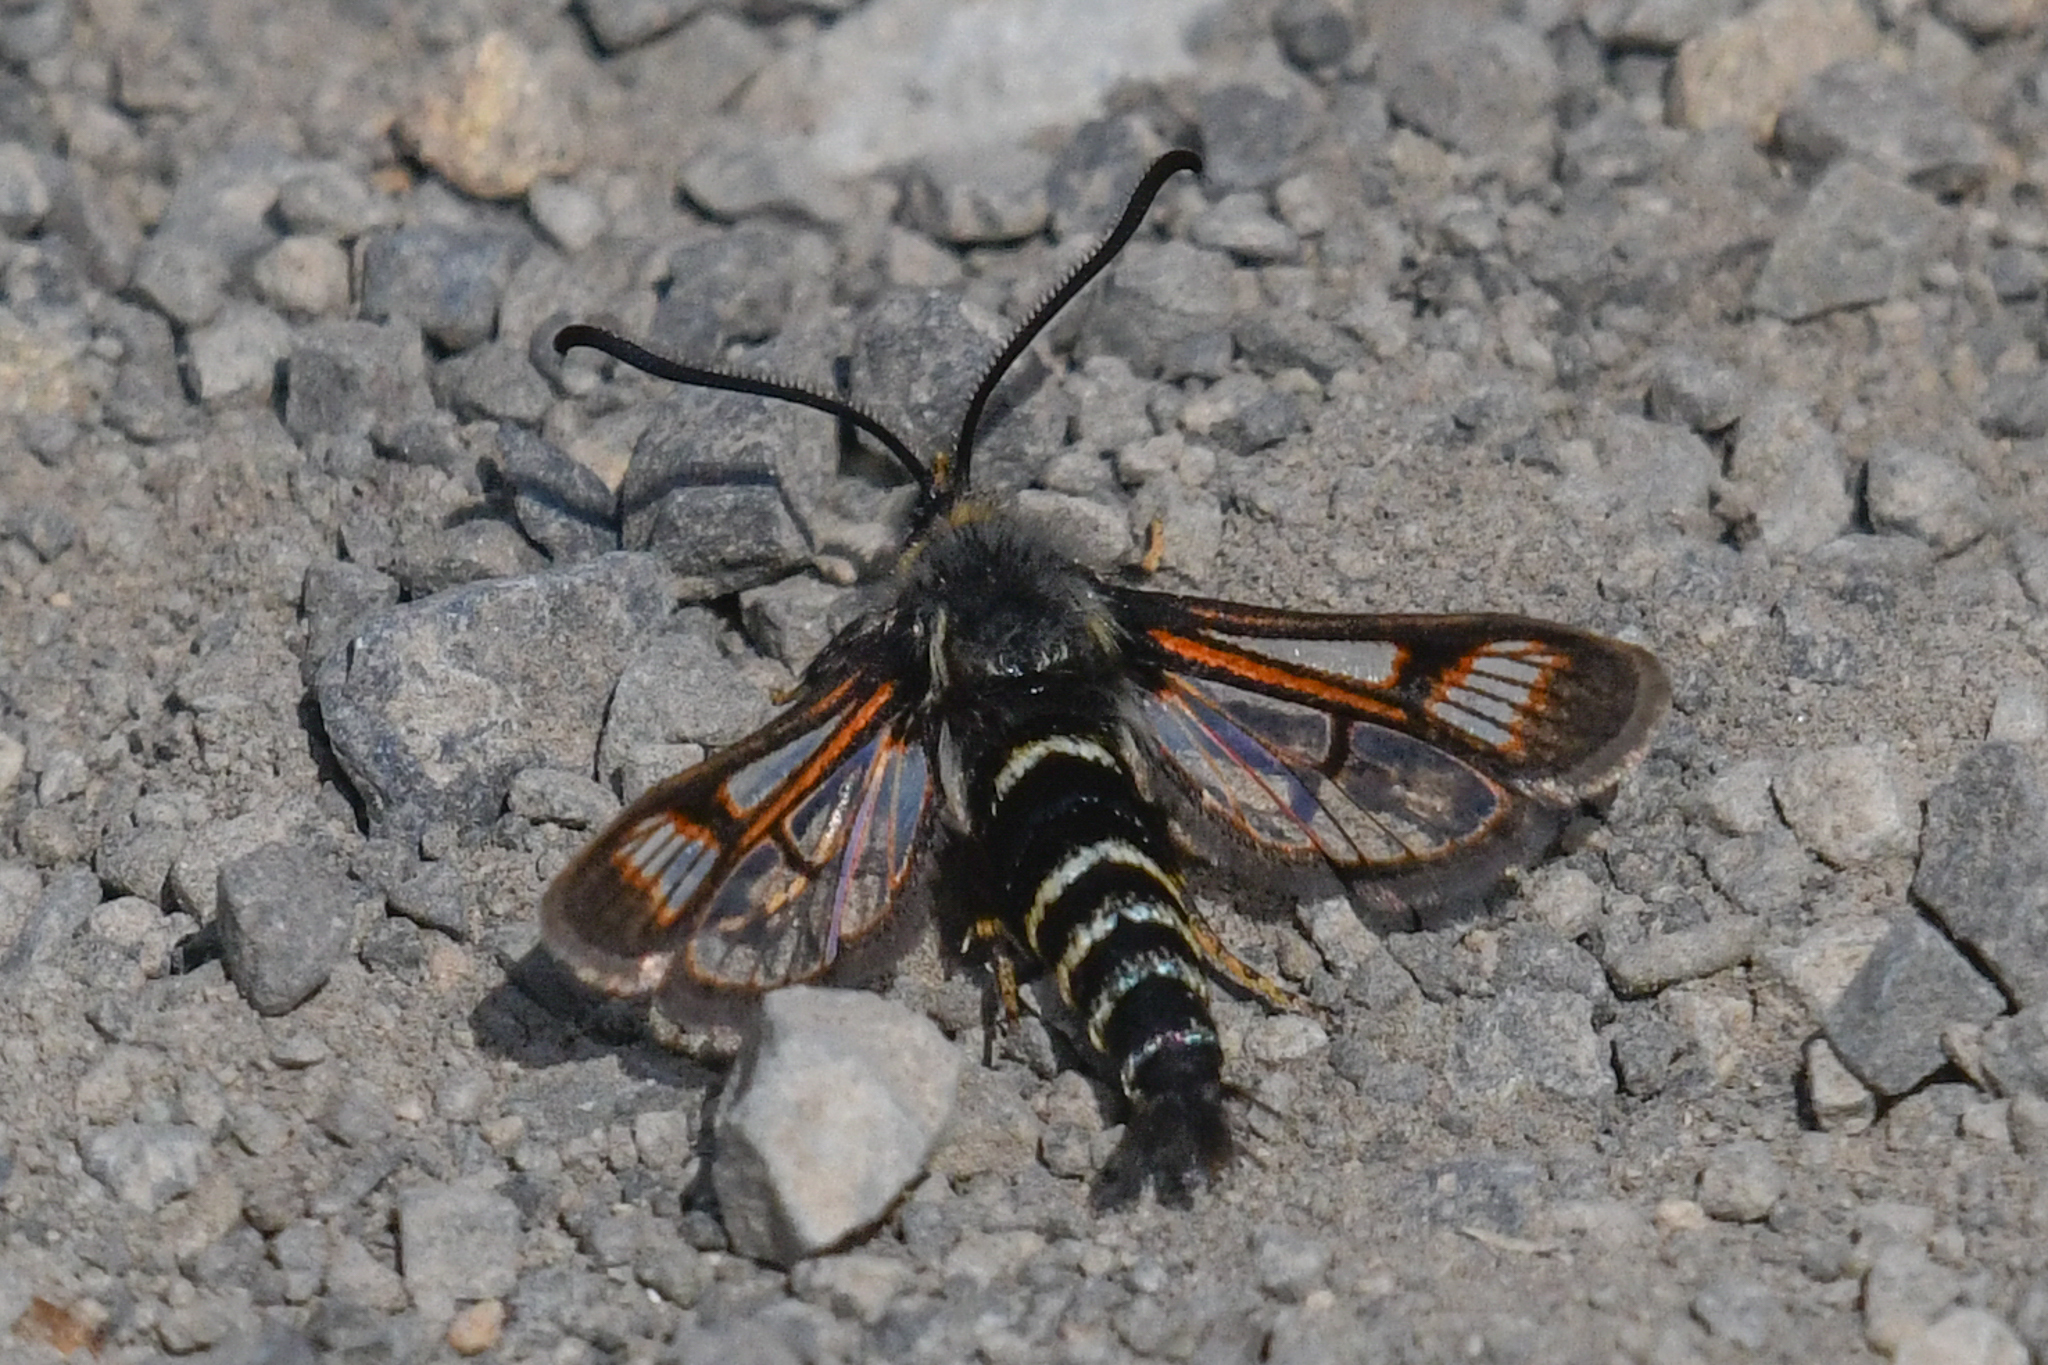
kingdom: Animalia
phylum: Arthropoda
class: Insecta
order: Lepidoptera
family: Sesiidae
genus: Albuna
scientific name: Albuna pyramidalis
